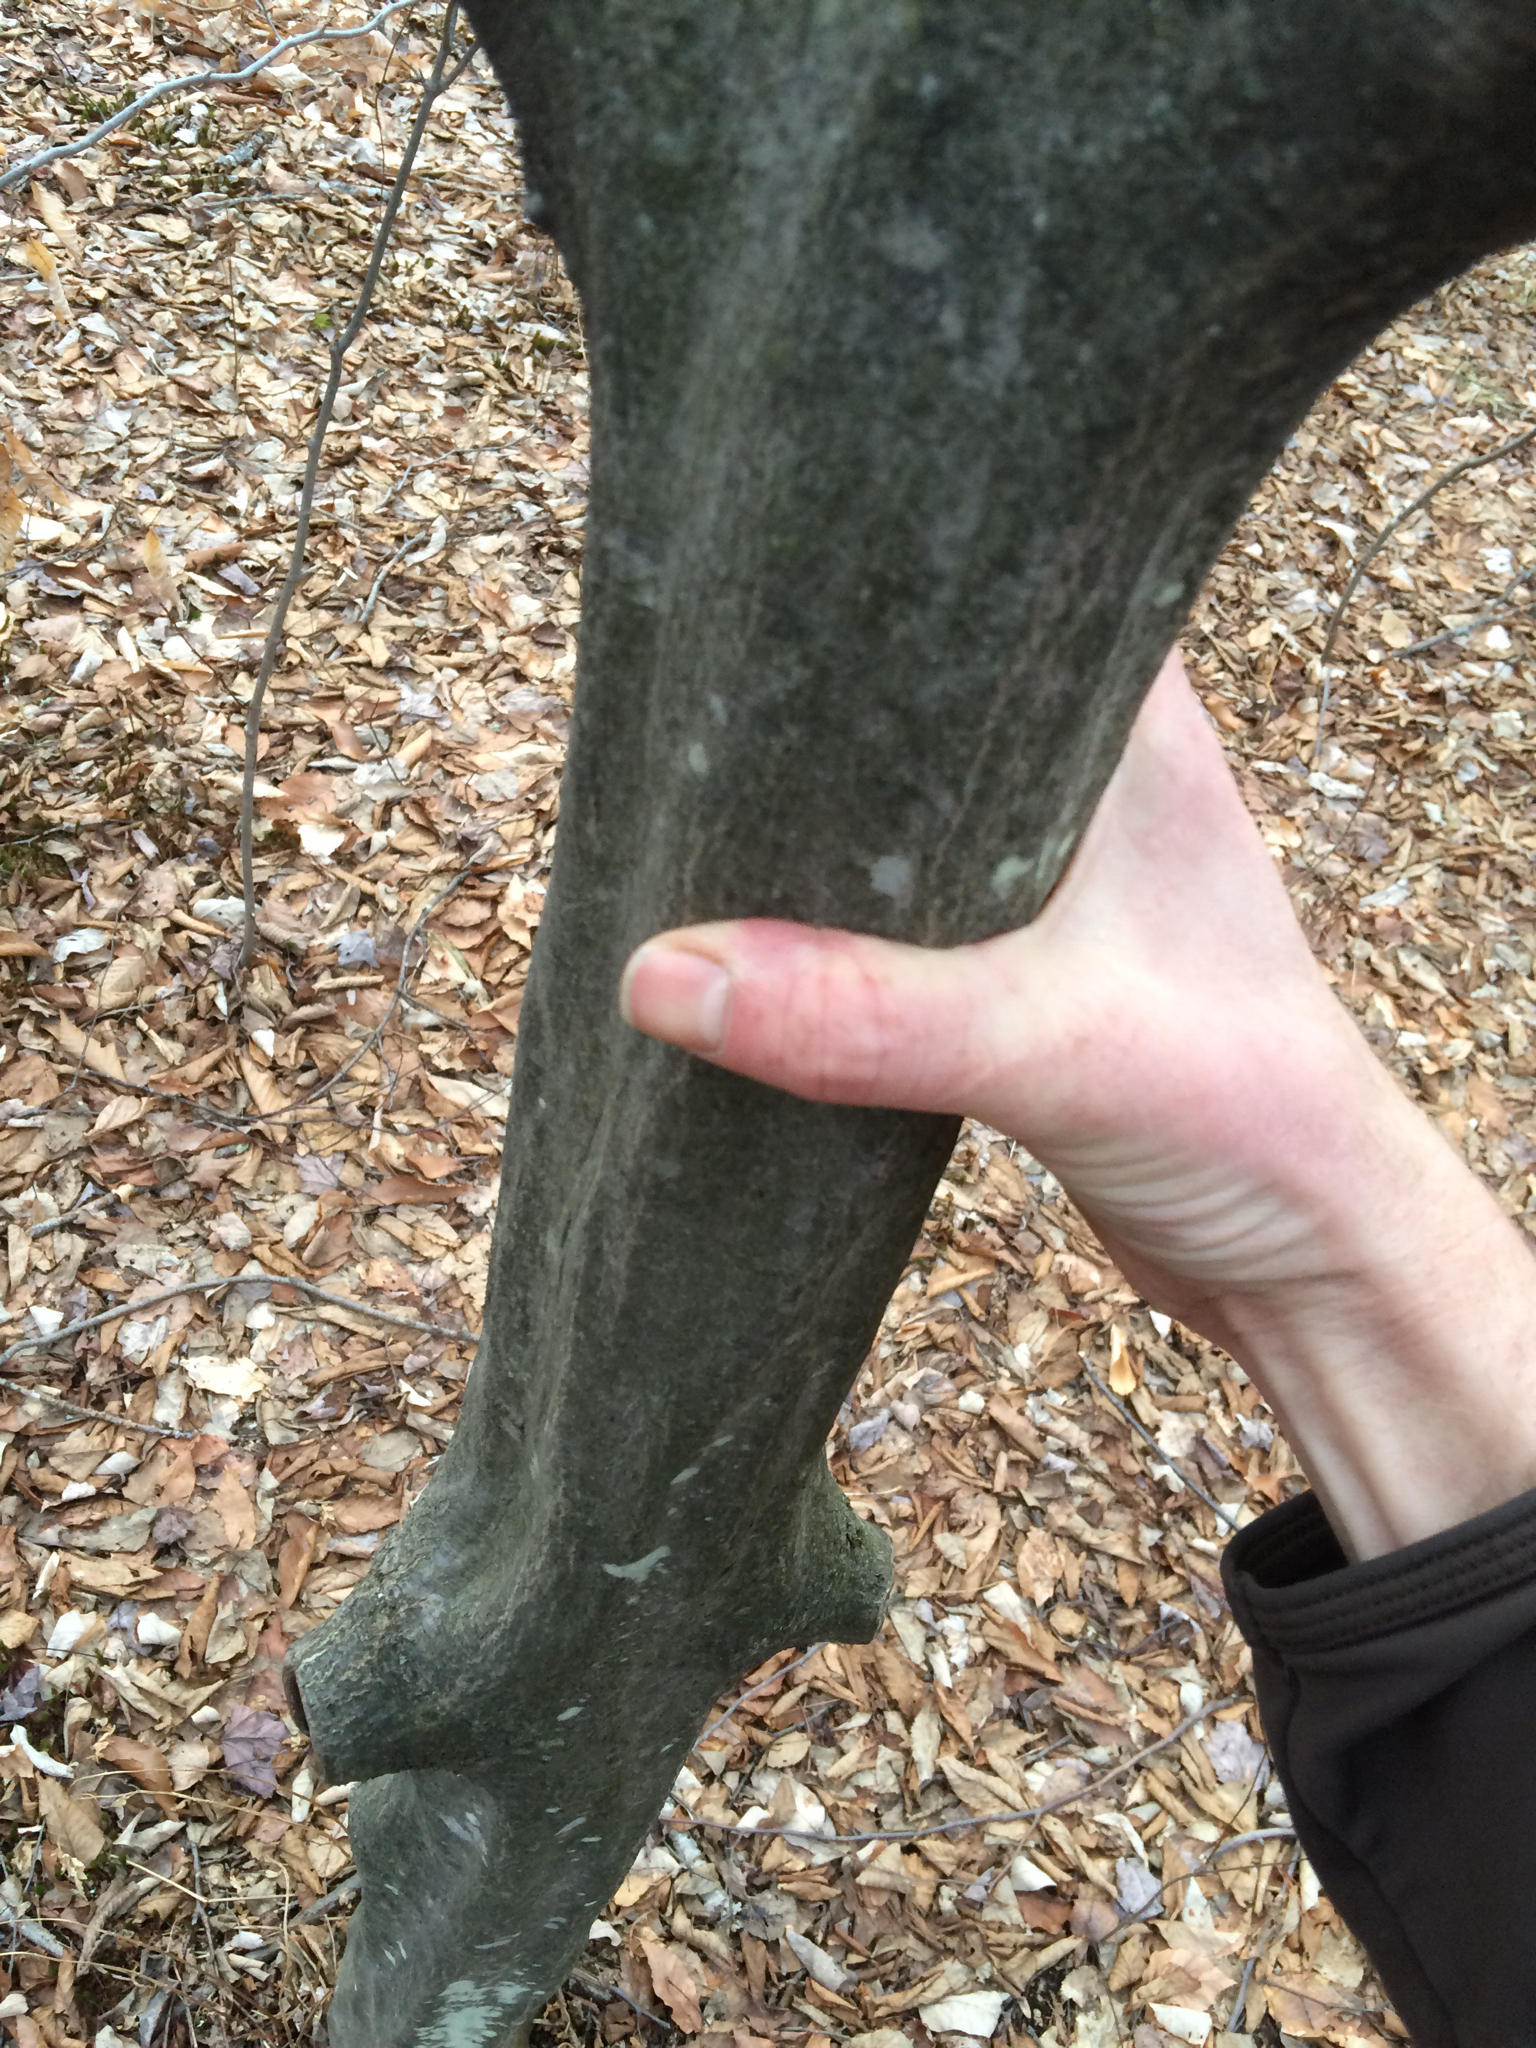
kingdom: Plantae
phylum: Tracheophyta
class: Magnoliopsida
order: Fagales
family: Betulaceae
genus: Carpinus
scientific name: Carpinus caroliniana
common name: American hornbeam
